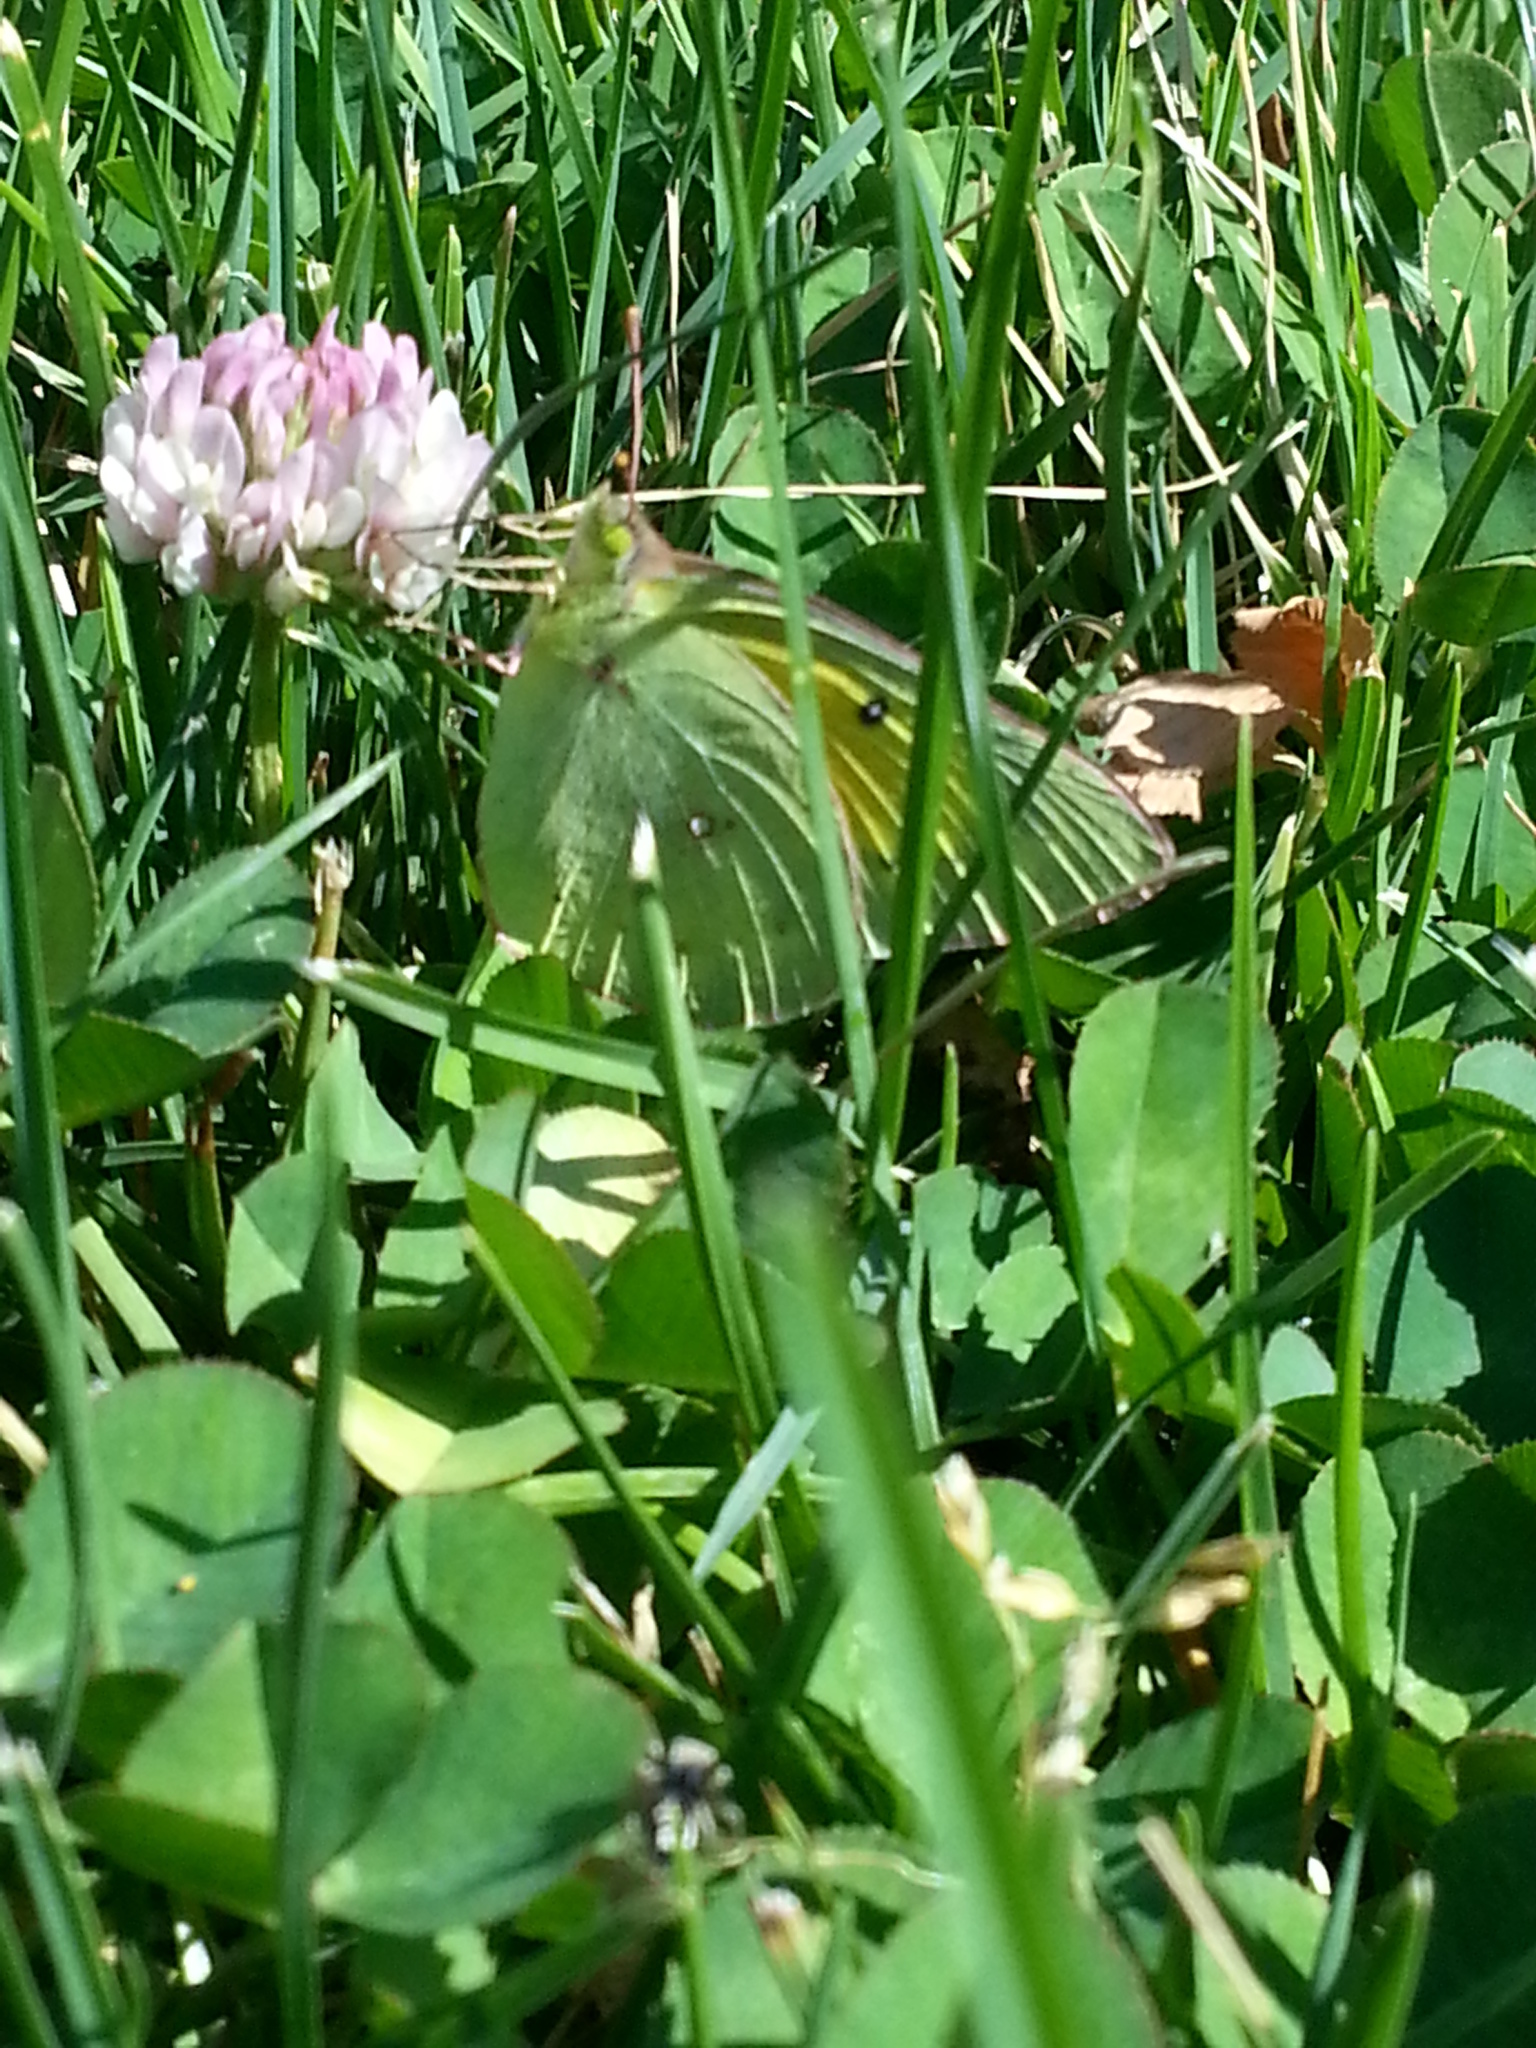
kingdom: Animalia
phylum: Arthropoda
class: Insecta
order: Lepidoptera
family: Pieridae
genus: Colias
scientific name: Colias eurytheme
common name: Alfalfa butterfly
